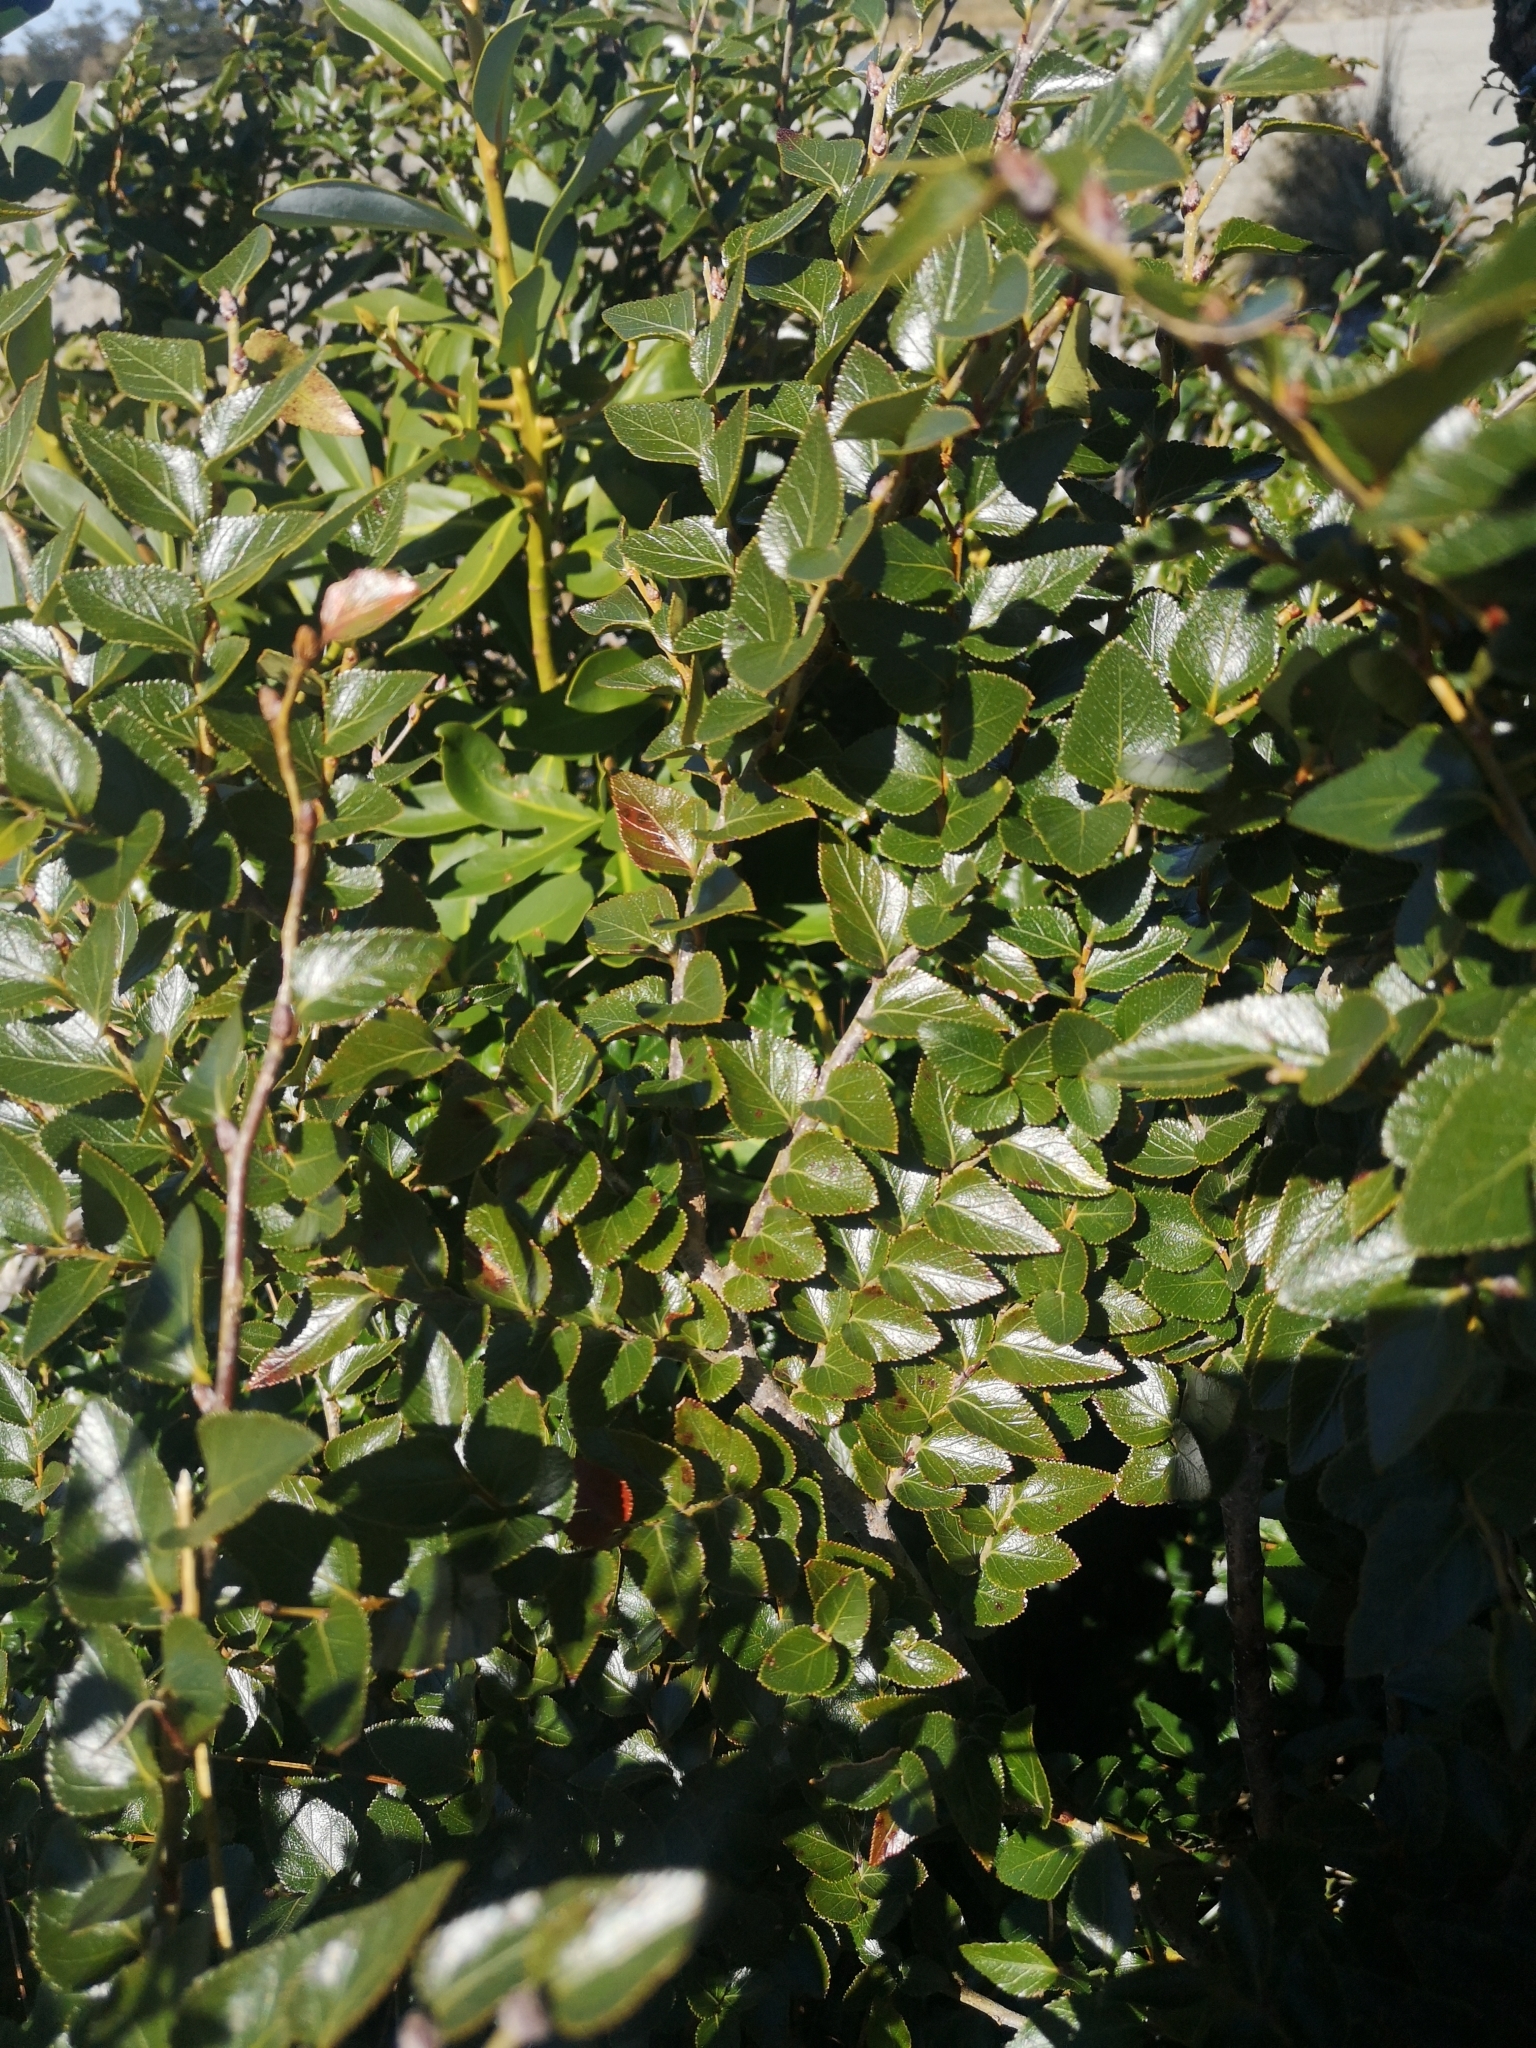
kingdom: Plantae
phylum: Tracheophyta
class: Magnoliopsida
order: Fagales
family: Nothofagaceae
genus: Nothofagus
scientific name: Nothofagus nitida
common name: Chiloé's coigue
